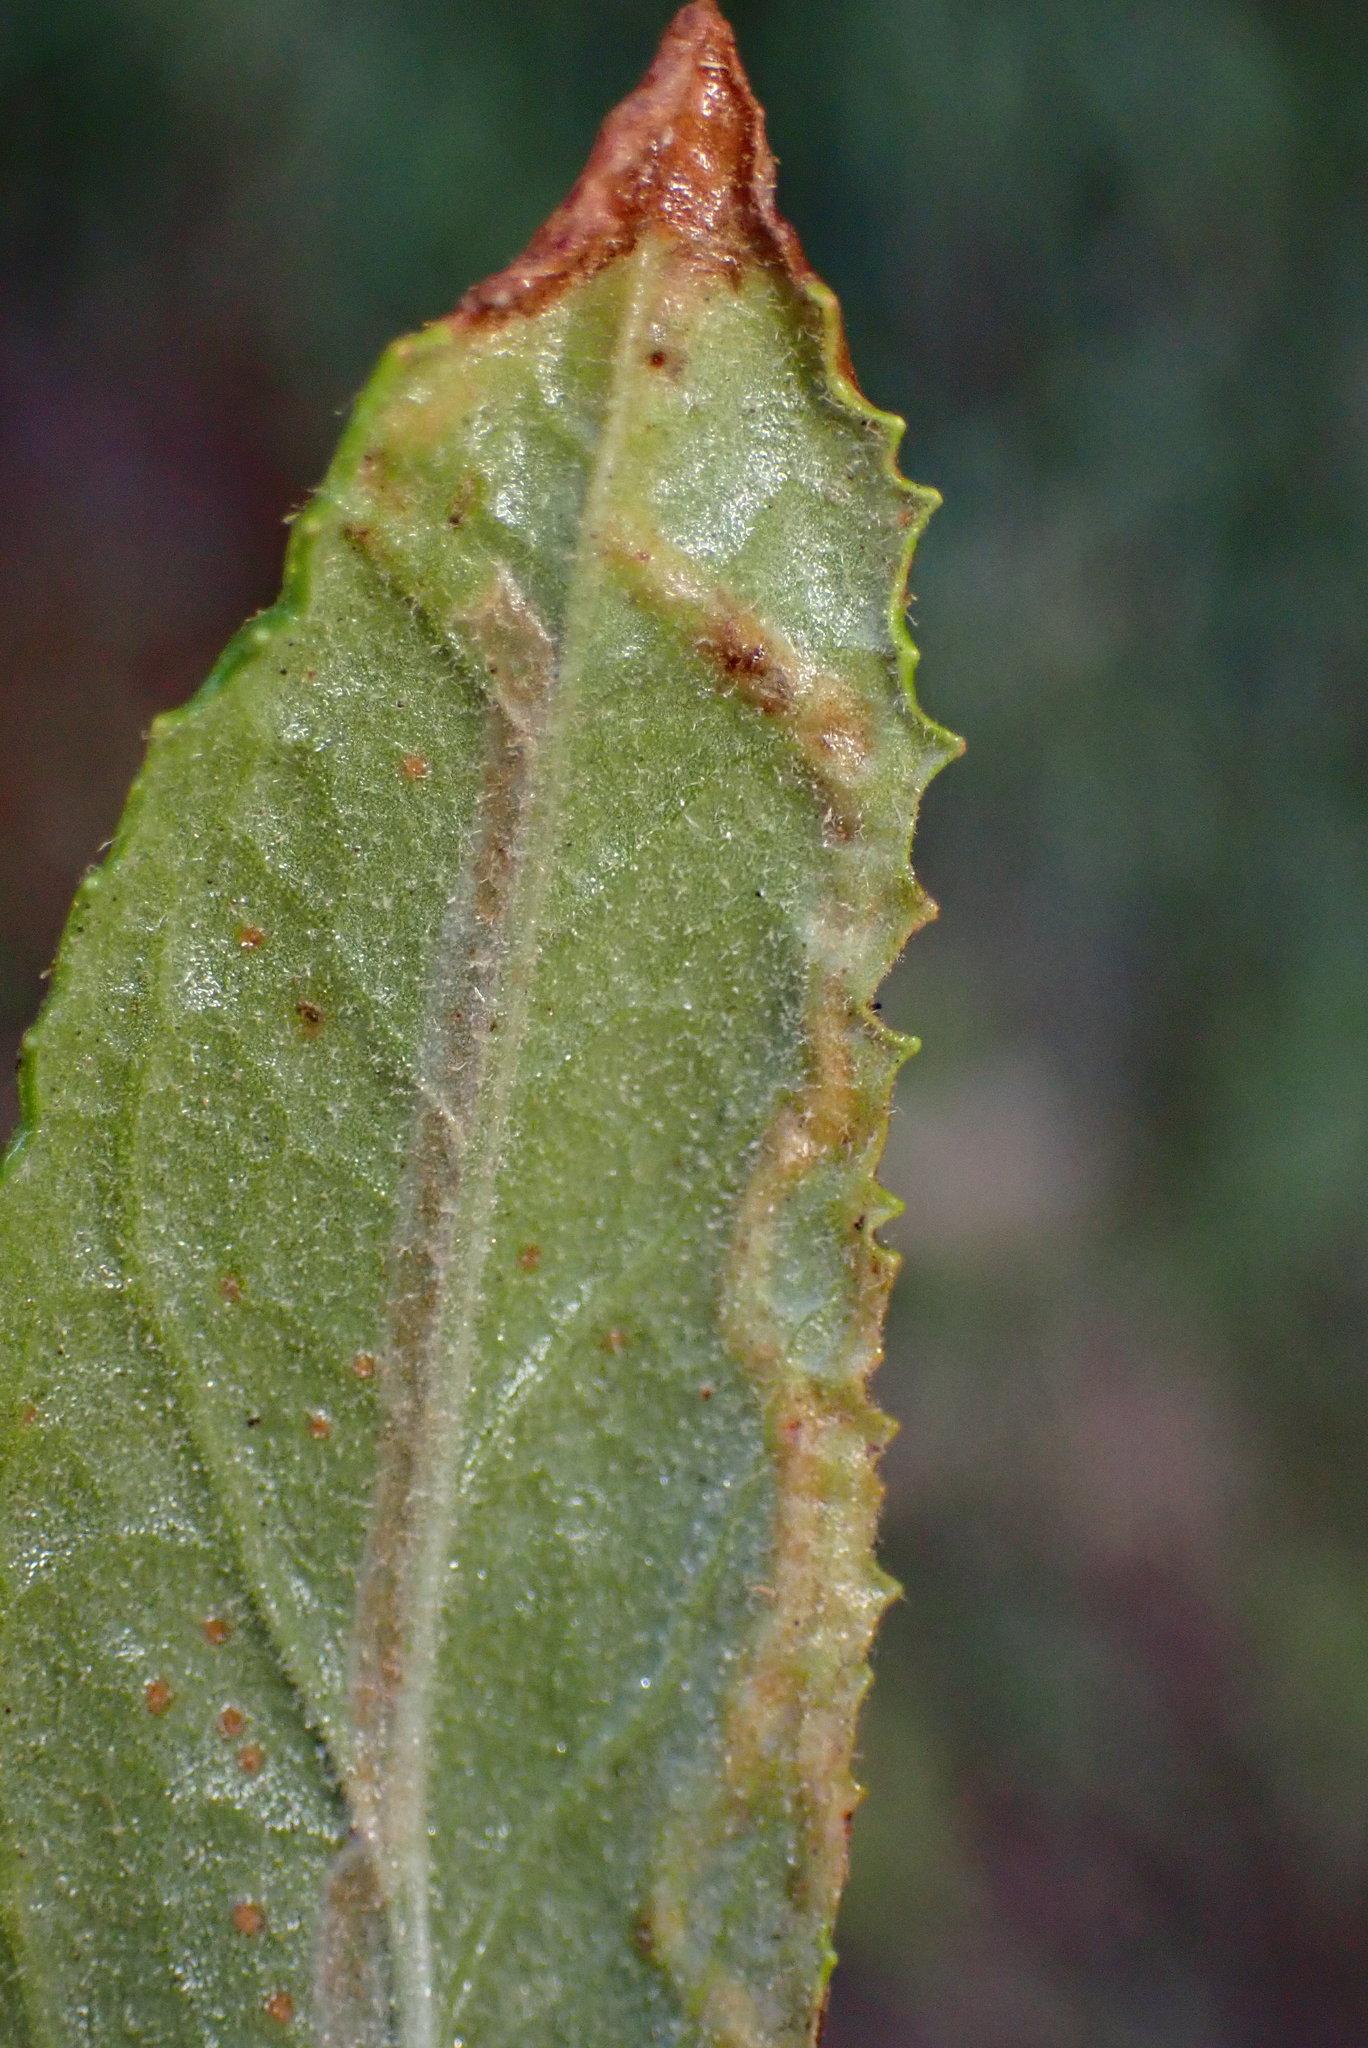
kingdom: Animalia
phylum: Arthropoda
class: Insecta
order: Diptera
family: Agromyzidae
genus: Phytomyza
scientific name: Phytomyza mimuli
